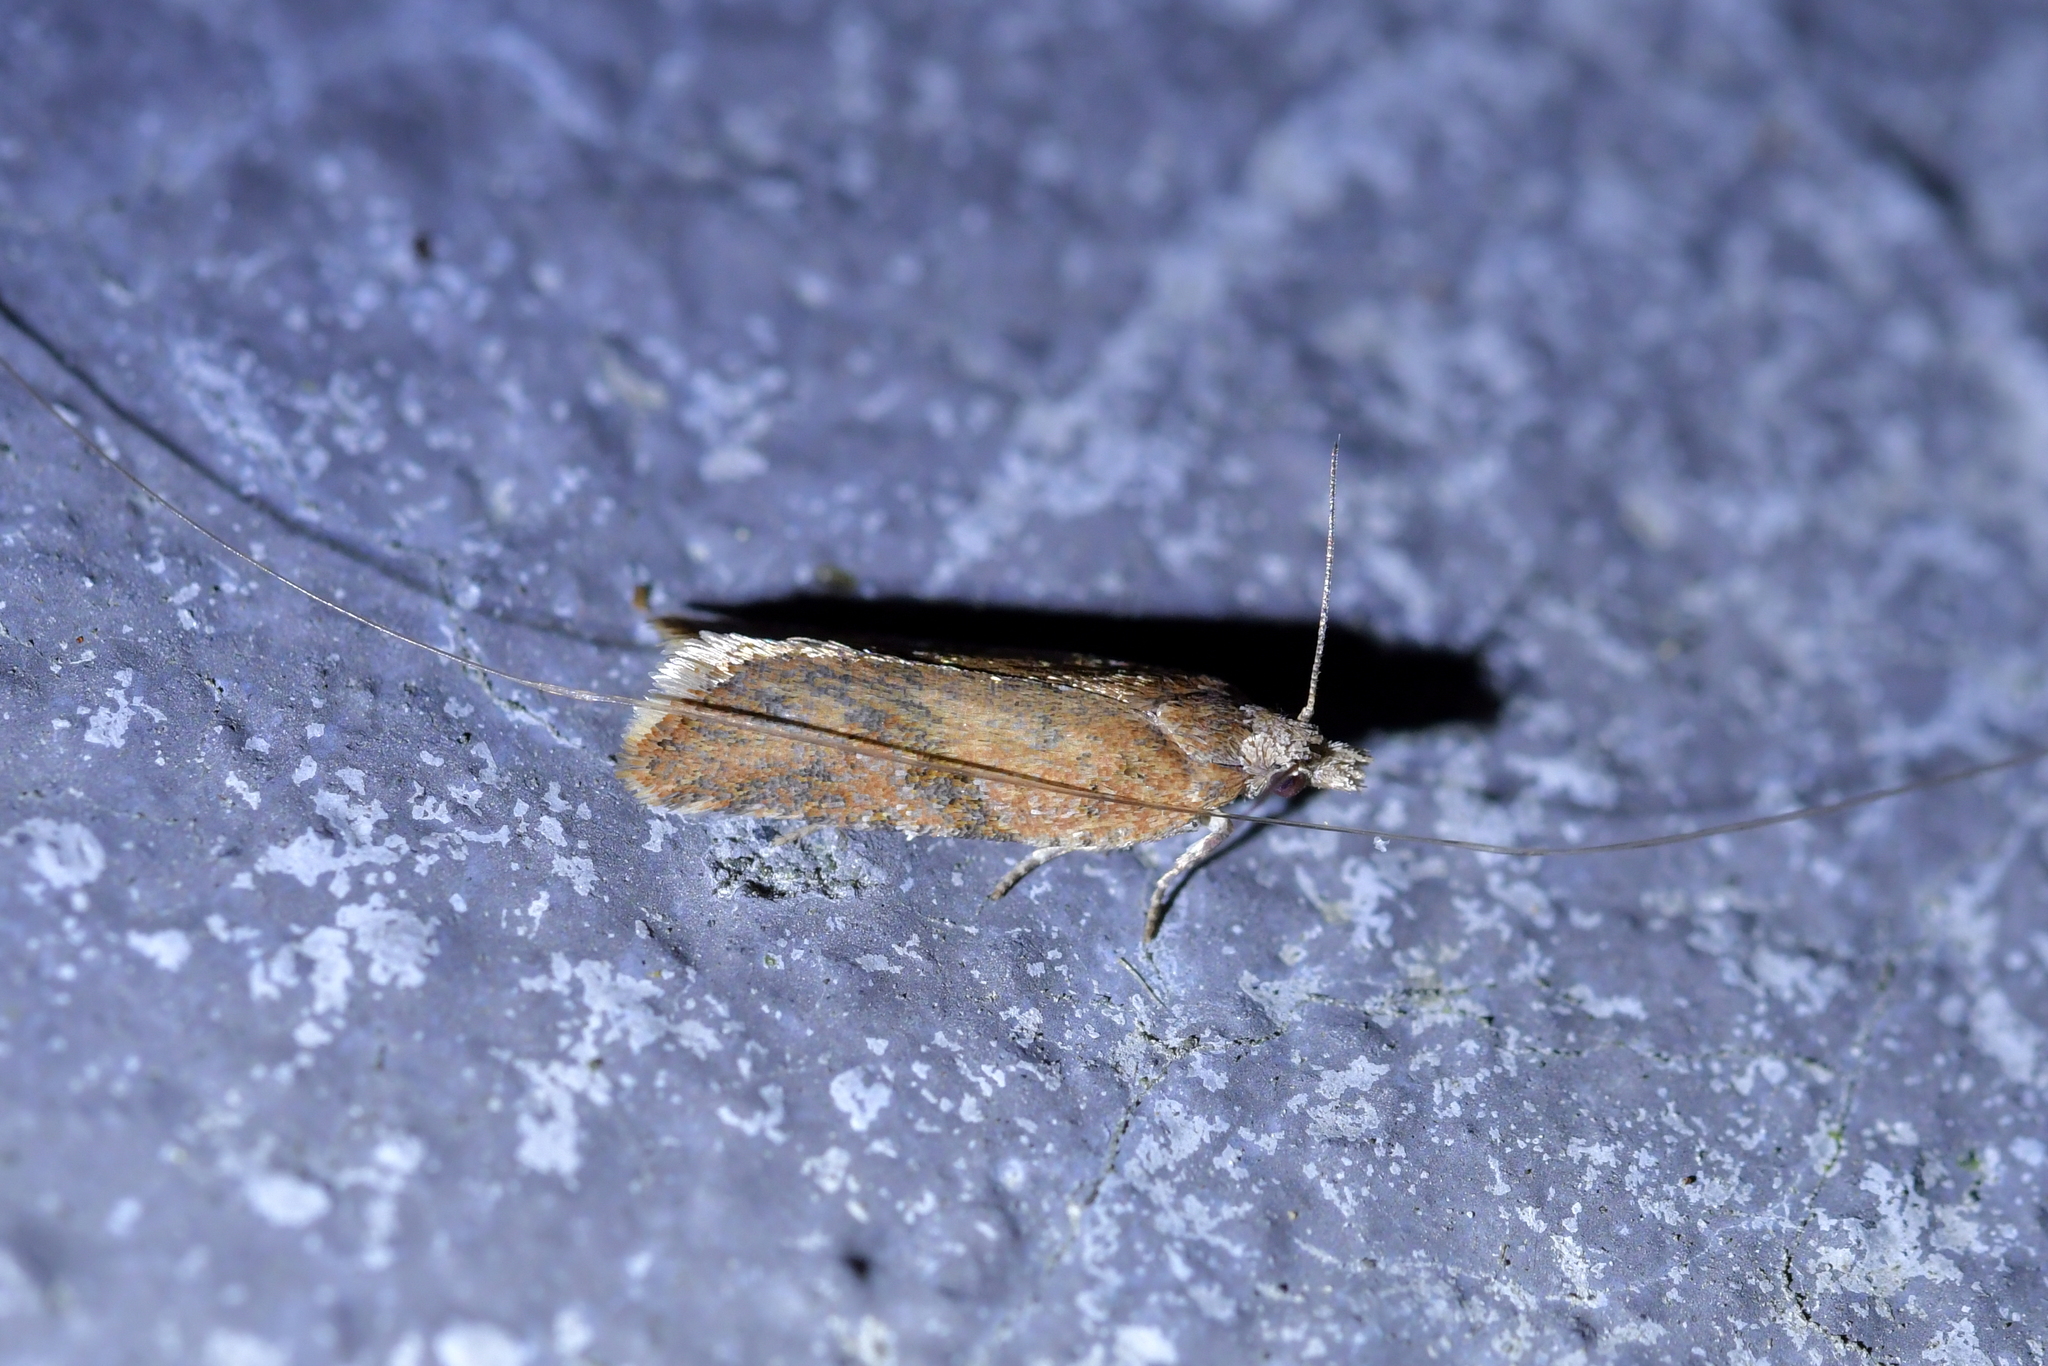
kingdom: Animalia
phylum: Arthropoda
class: Insecta
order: Lepidoptera
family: Tortricidae
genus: Capua
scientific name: Capua semiferana
